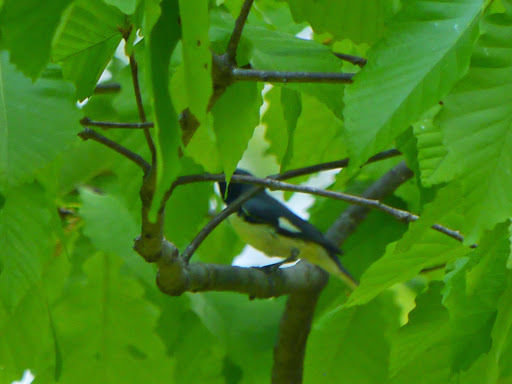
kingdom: Animalia
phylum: Chordata
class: Aves
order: Passeriformes
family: Parulidae
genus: Setophaga
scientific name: Setophaga caerulescens
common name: Black-throated blue warbler
